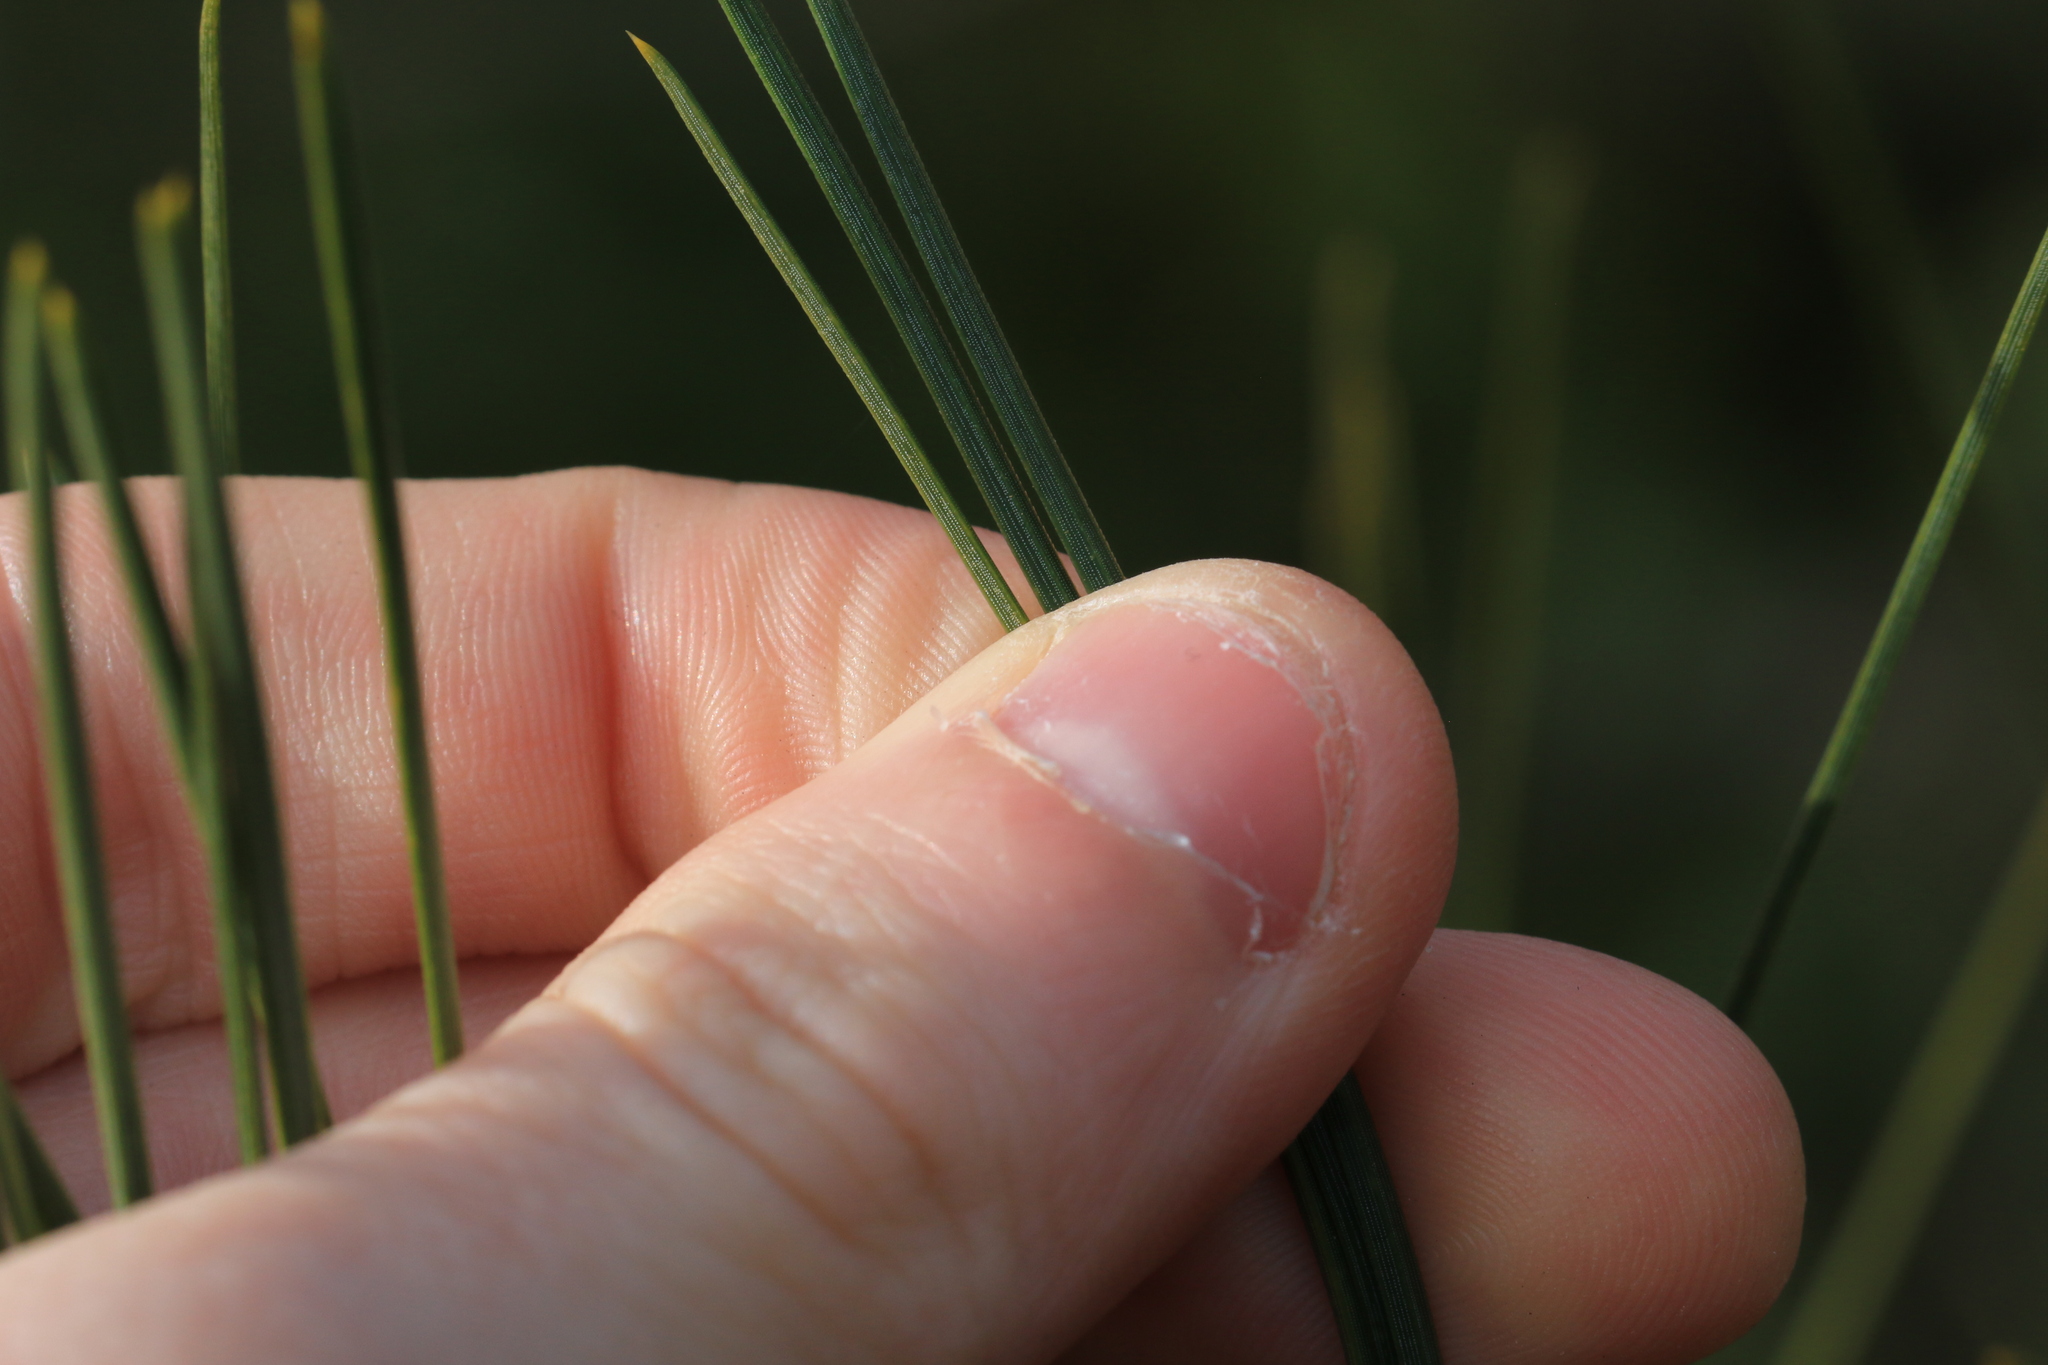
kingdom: Plantae
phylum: Tracheophyta
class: Pinopsida
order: Pinales
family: Pinaceae
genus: Pinus
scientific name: Pinus ponderosa
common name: Western yellow-pine
